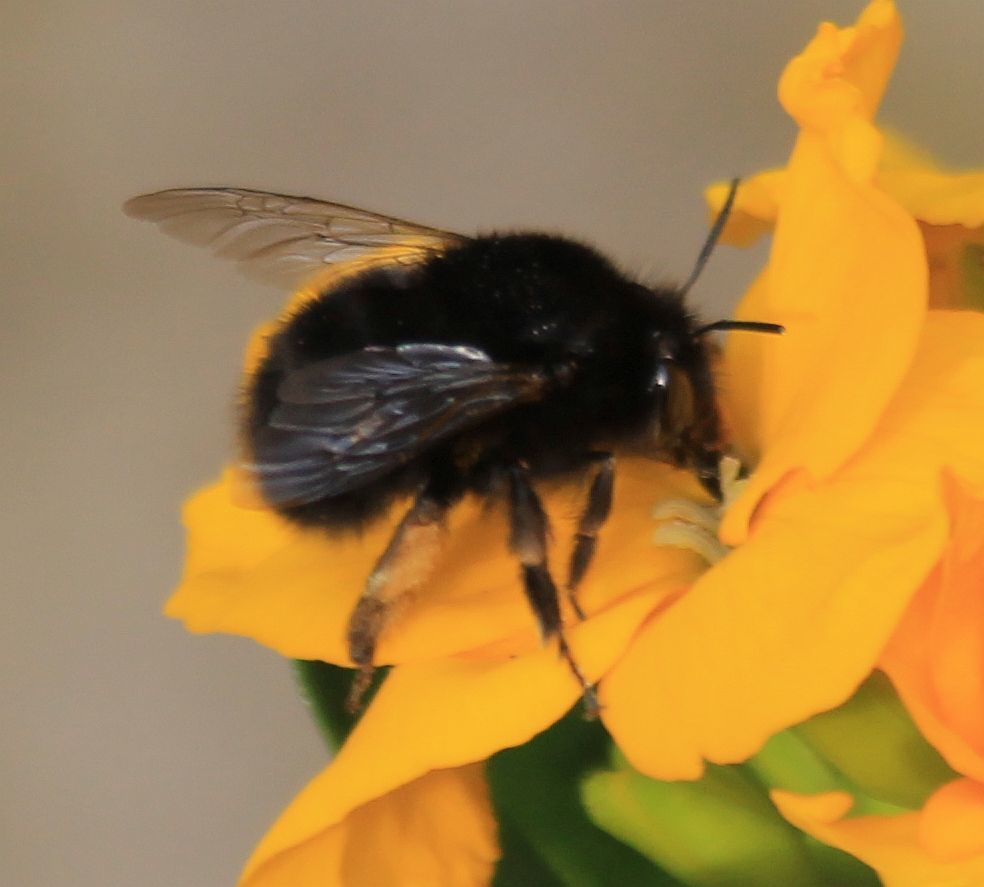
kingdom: Animalia
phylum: Arthropoda
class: Insecta
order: Hymenoptera
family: Apidae
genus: Anthophora
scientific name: Anthophora plumipes
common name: Hairy-footed flower bee
